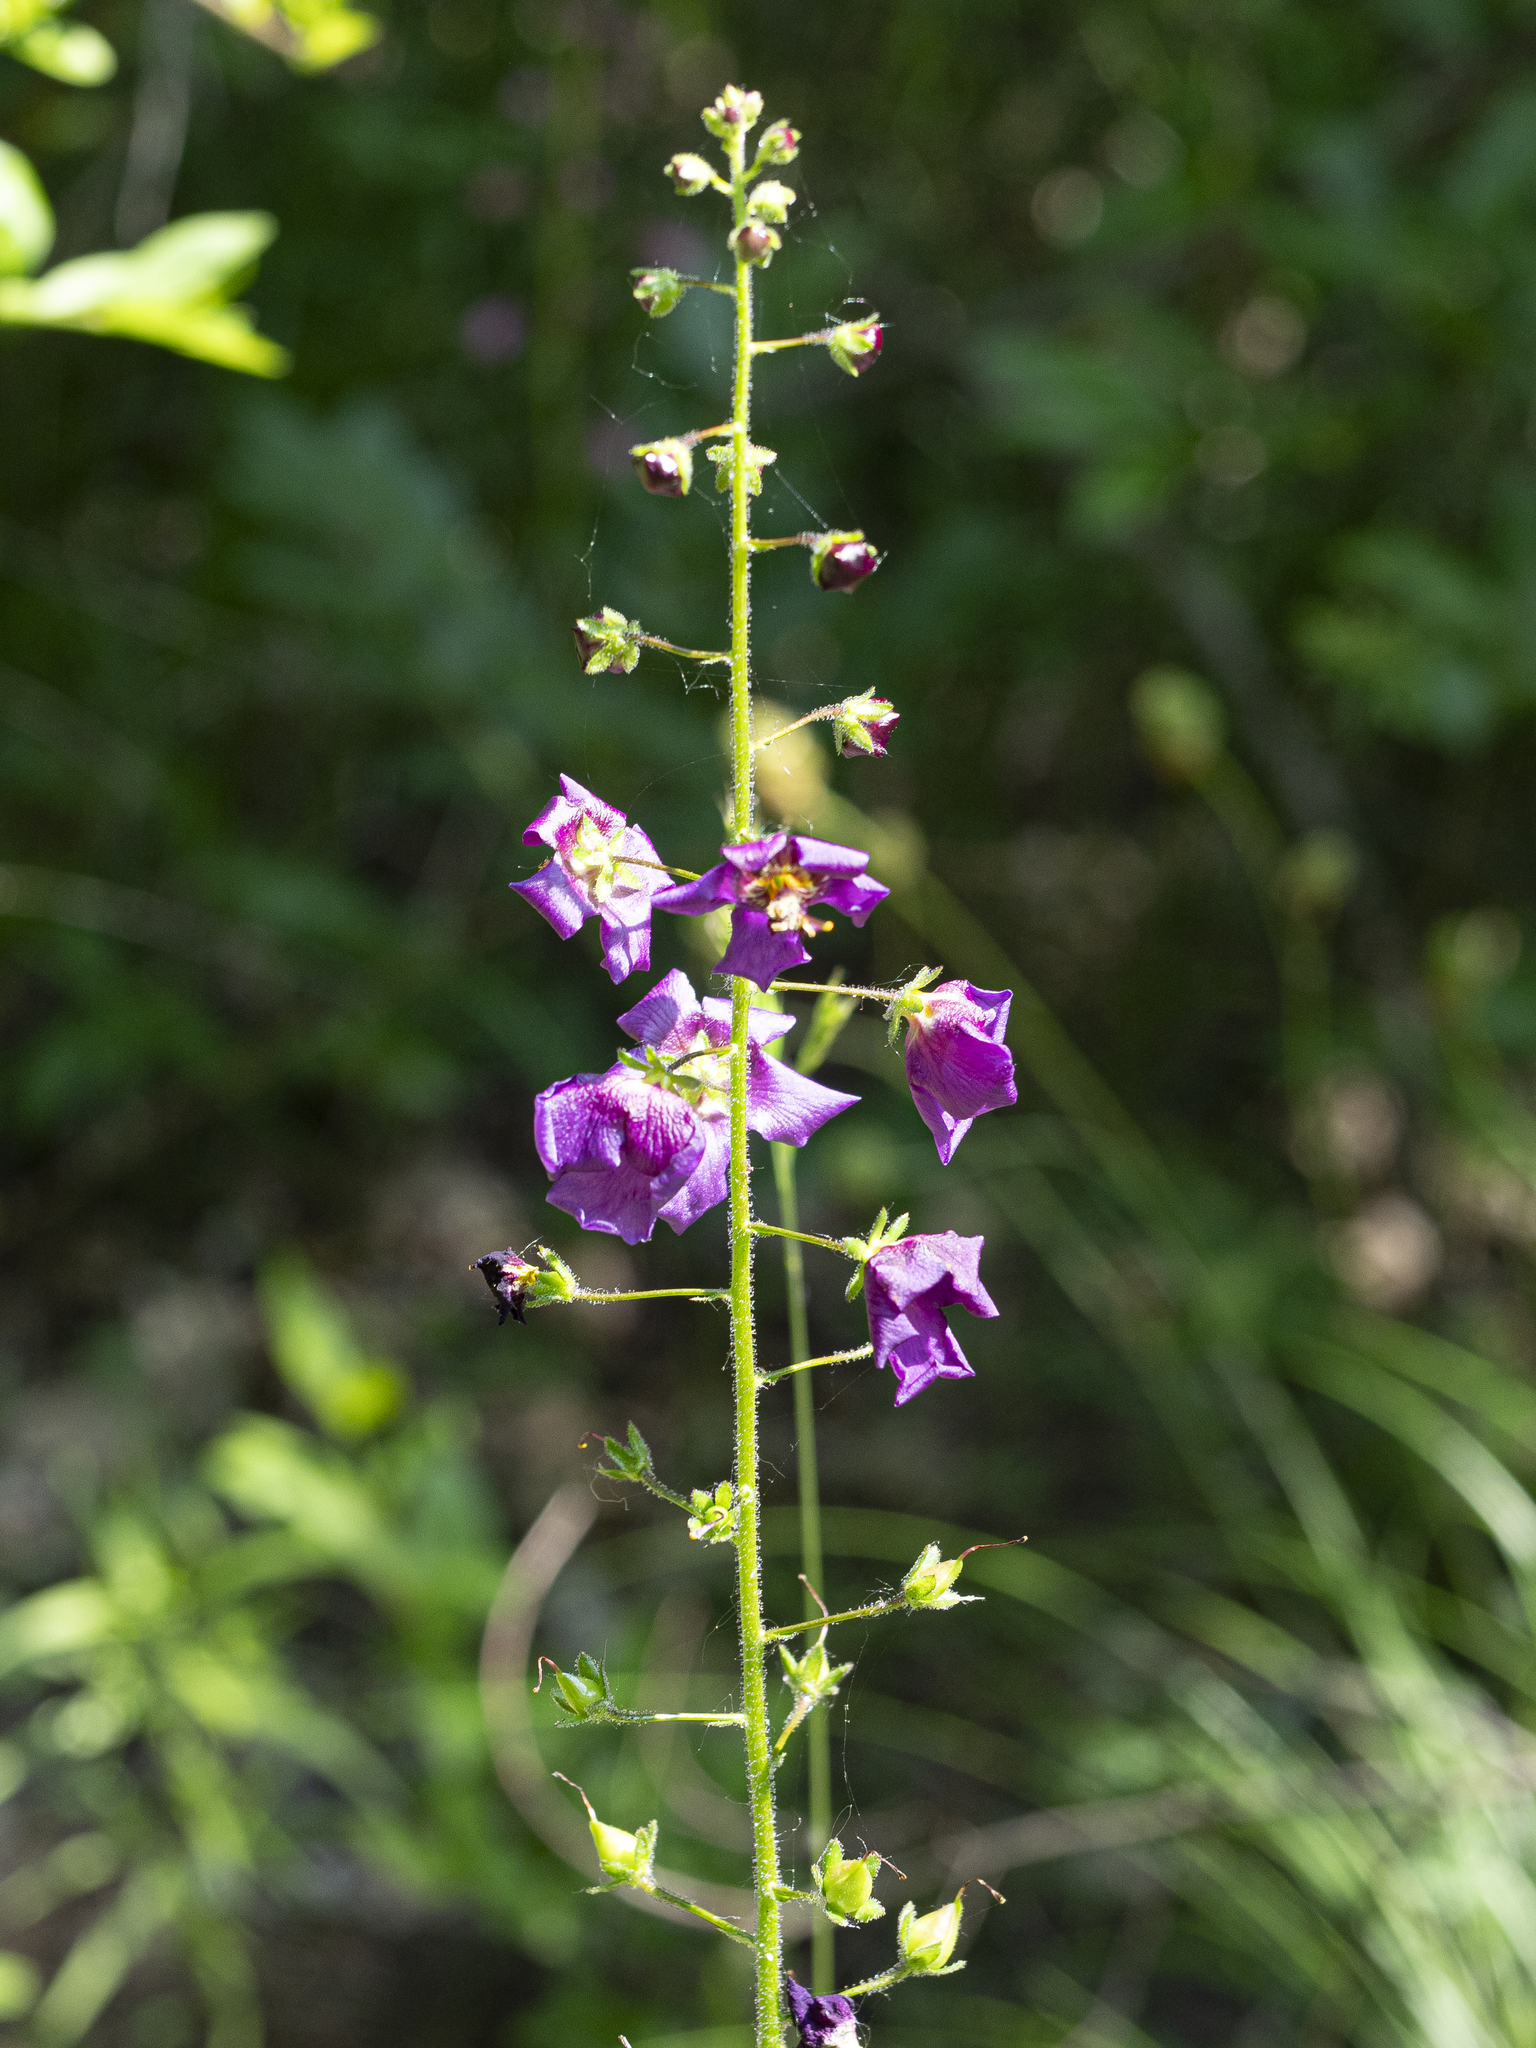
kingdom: Plantae
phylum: Tracheophyta
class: Magnoliopsida
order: Lamiales
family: Scrophulariaceae
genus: Verbascum
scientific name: Verbascum phoeniceum
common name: Purple mullein
